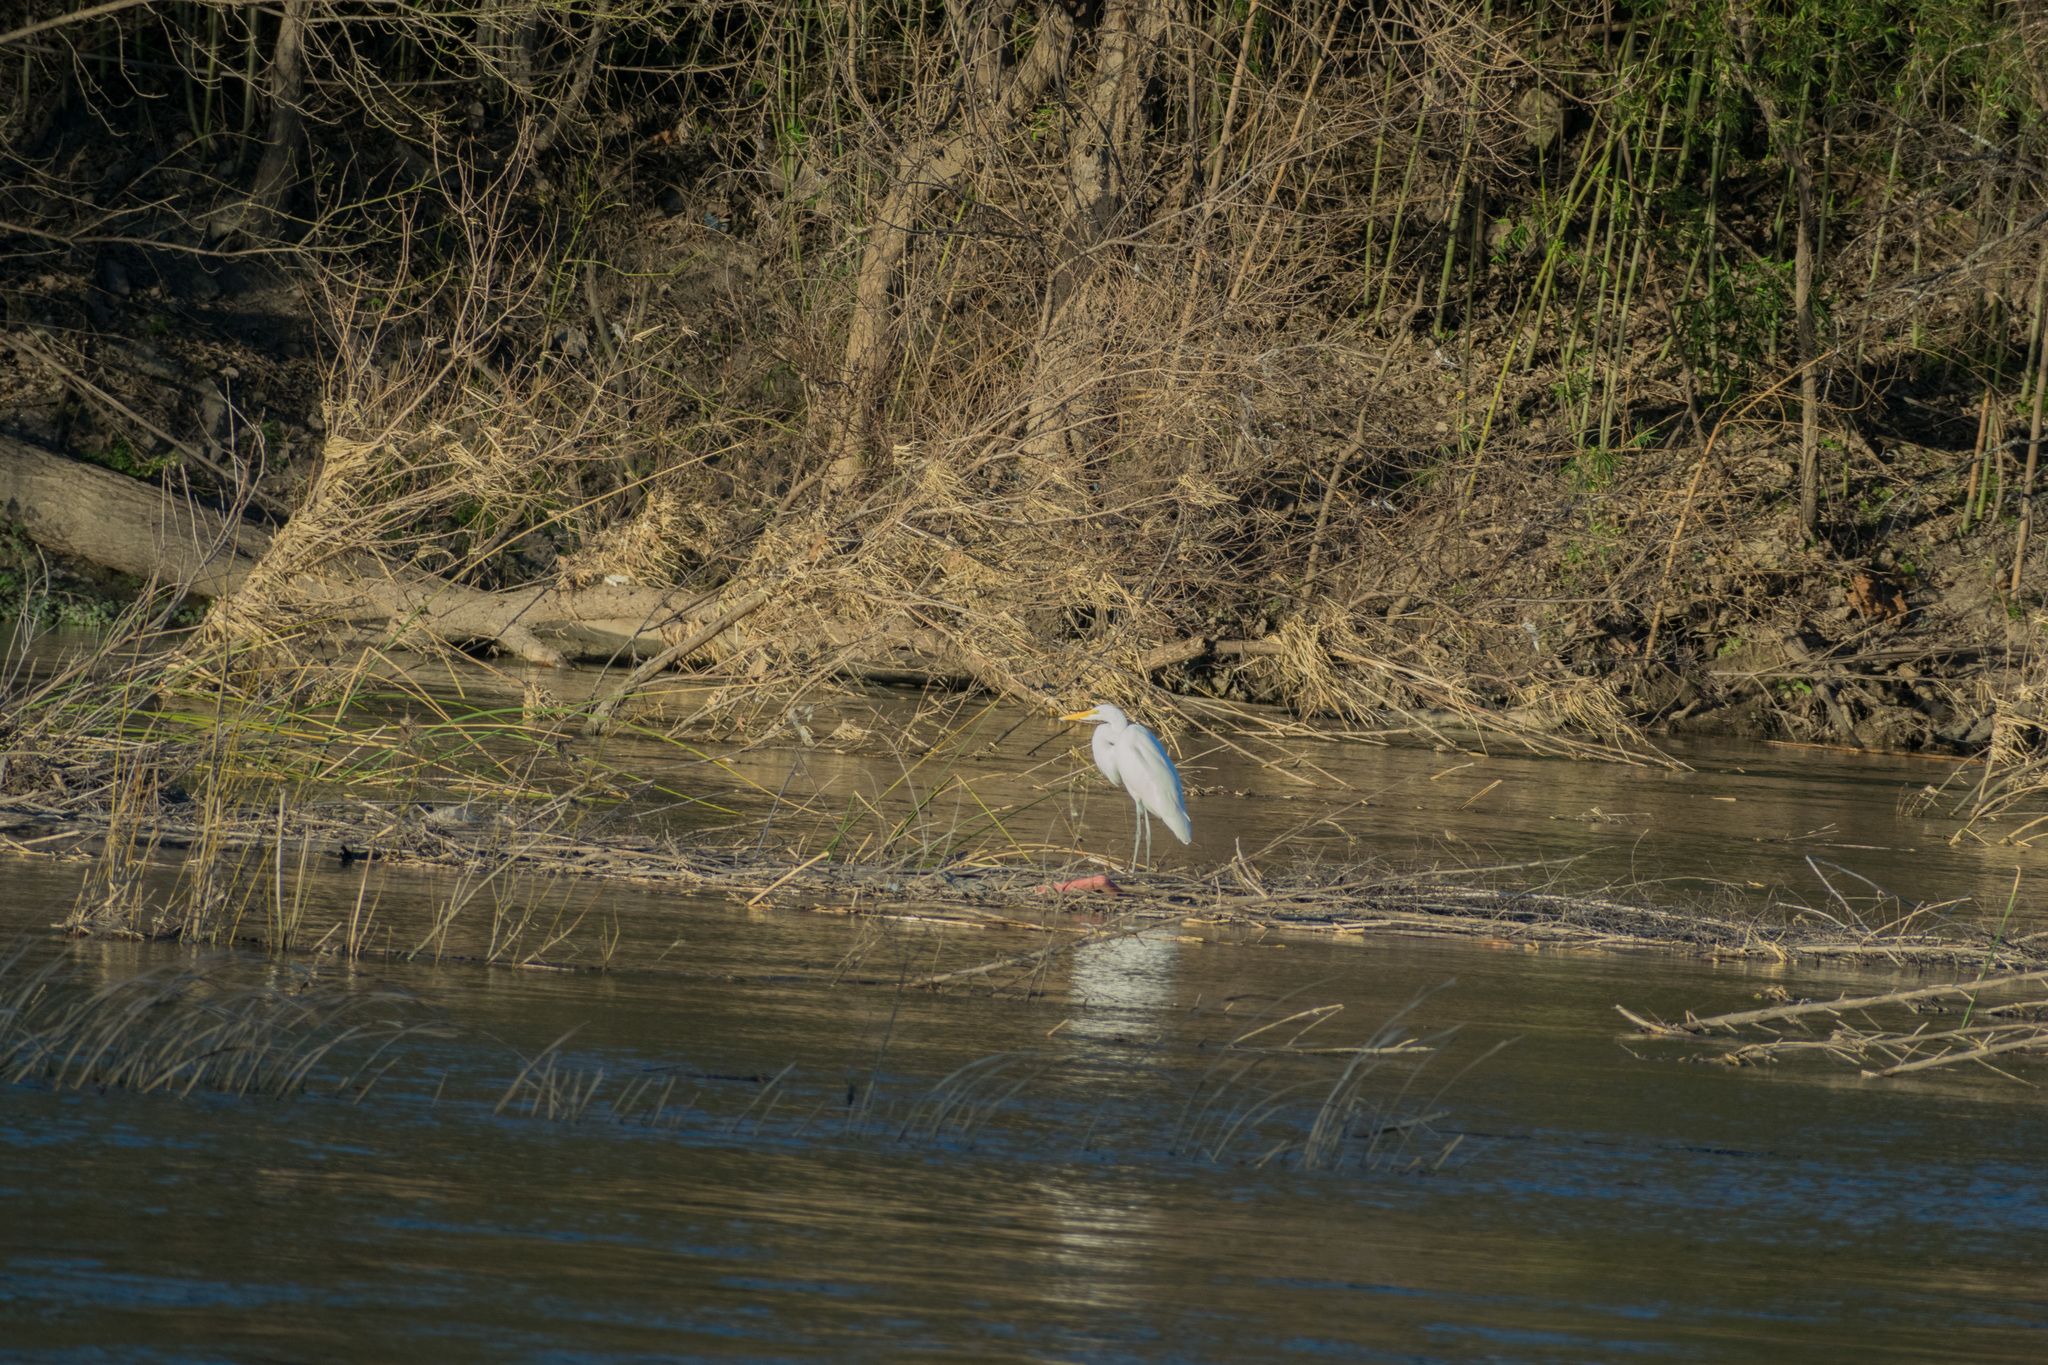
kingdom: Animalia
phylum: Chordata
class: Aves
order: Pelecaniformes
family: Ardeidae
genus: Ardea
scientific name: Ardea alba
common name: Great egret
